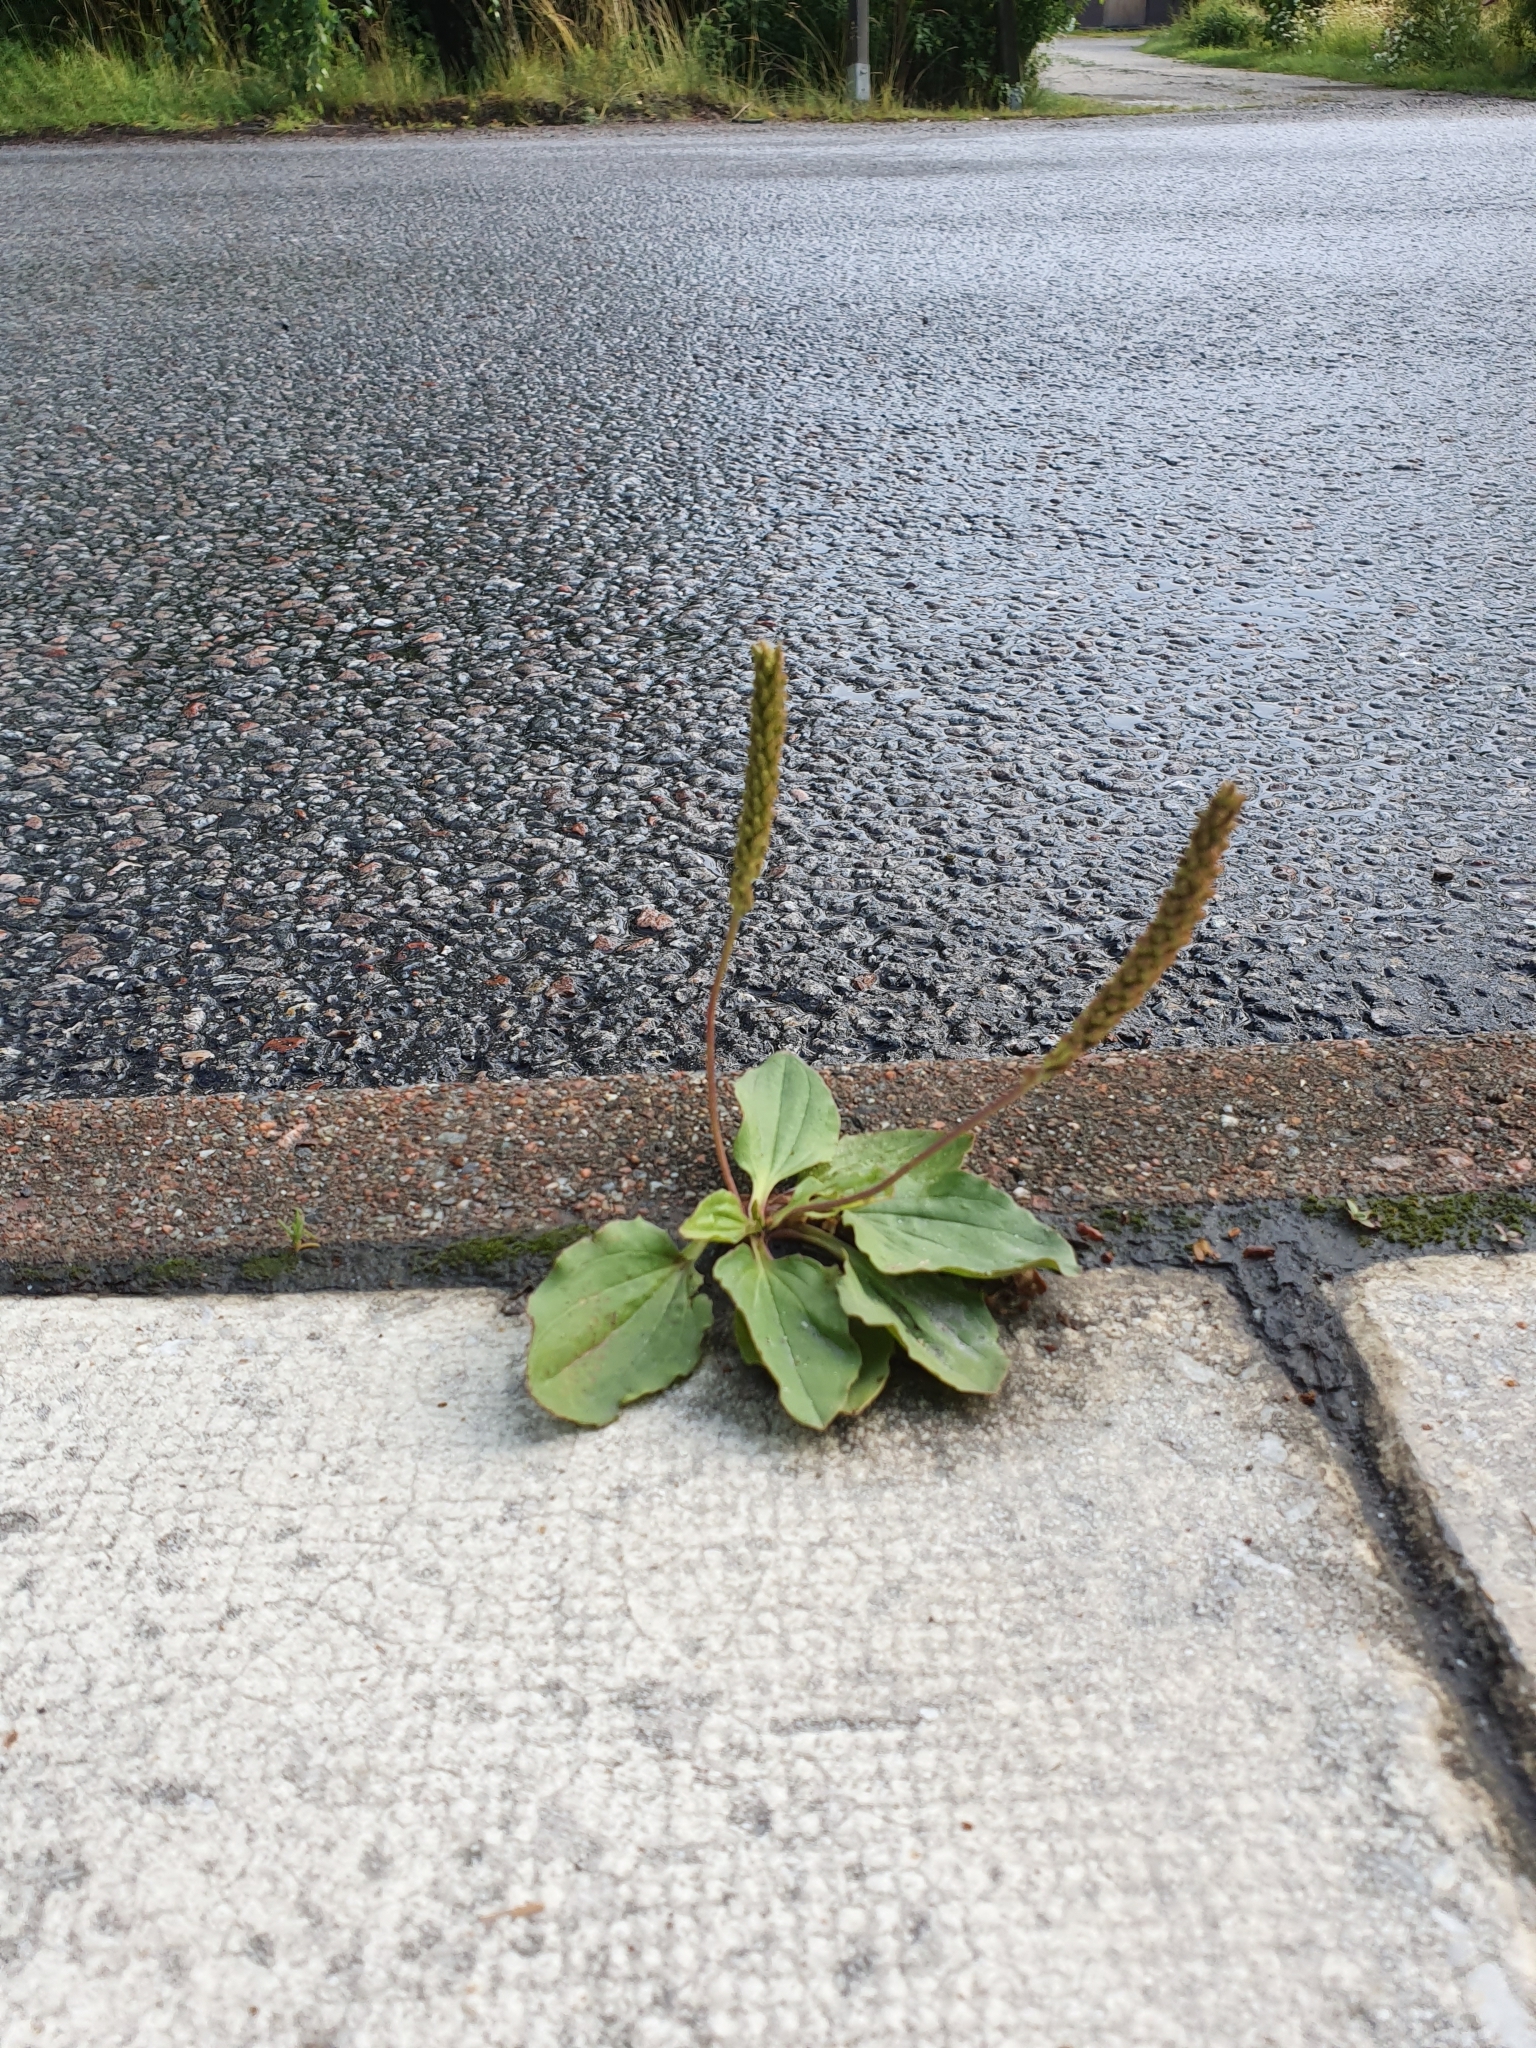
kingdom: Plantae
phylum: Tracheophyta
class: Magnoliopsida
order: Lamiales
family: Plantaginaceae
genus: Plantago
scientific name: Plantago major
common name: Common plantain
